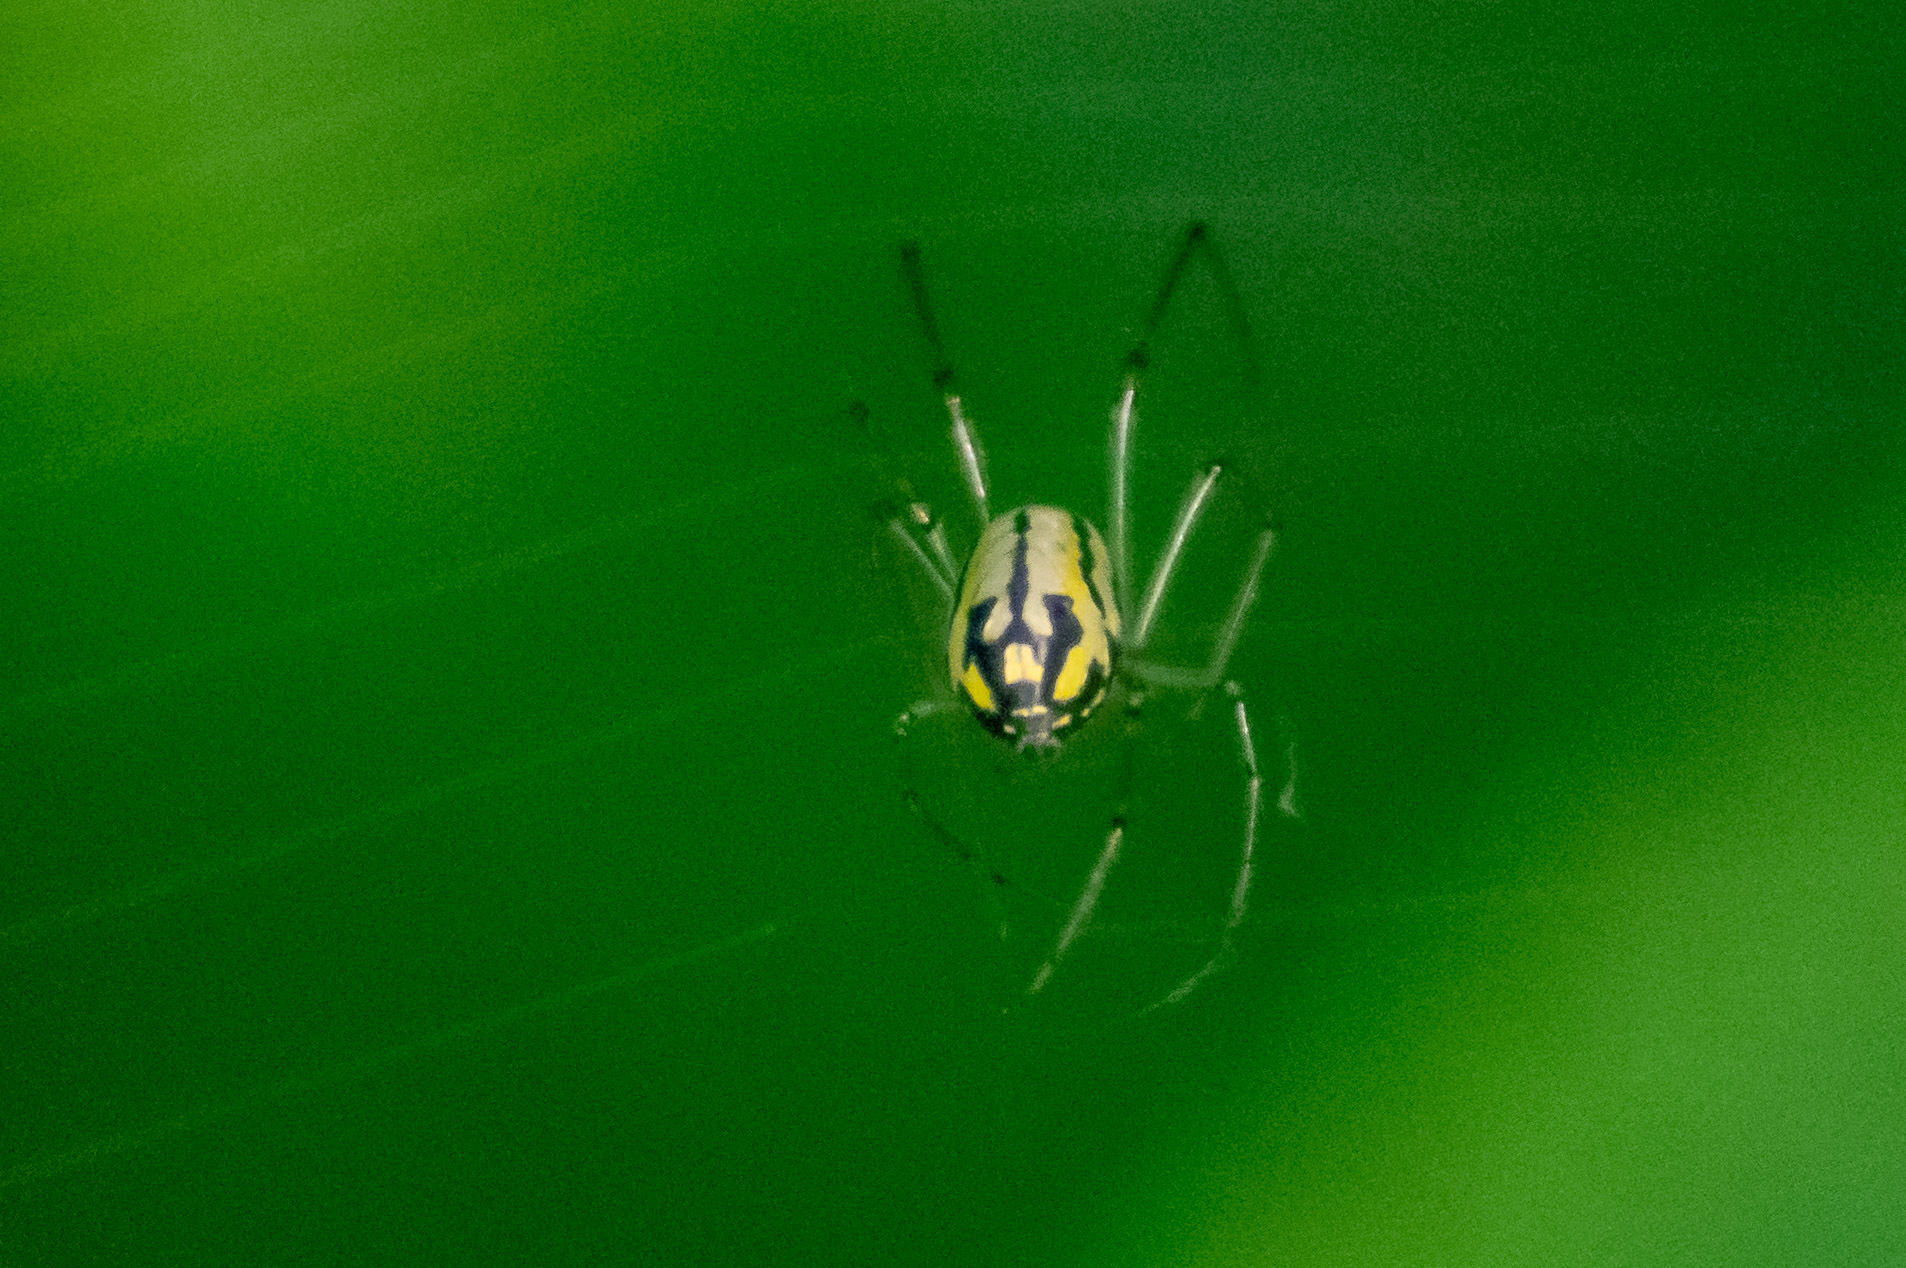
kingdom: Animalia
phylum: Arthropoda
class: Arachnida
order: Araneae
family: Tetragnathidae
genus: Leucauge
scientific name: Leucauge venusta
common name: Longjawed orb weavers
